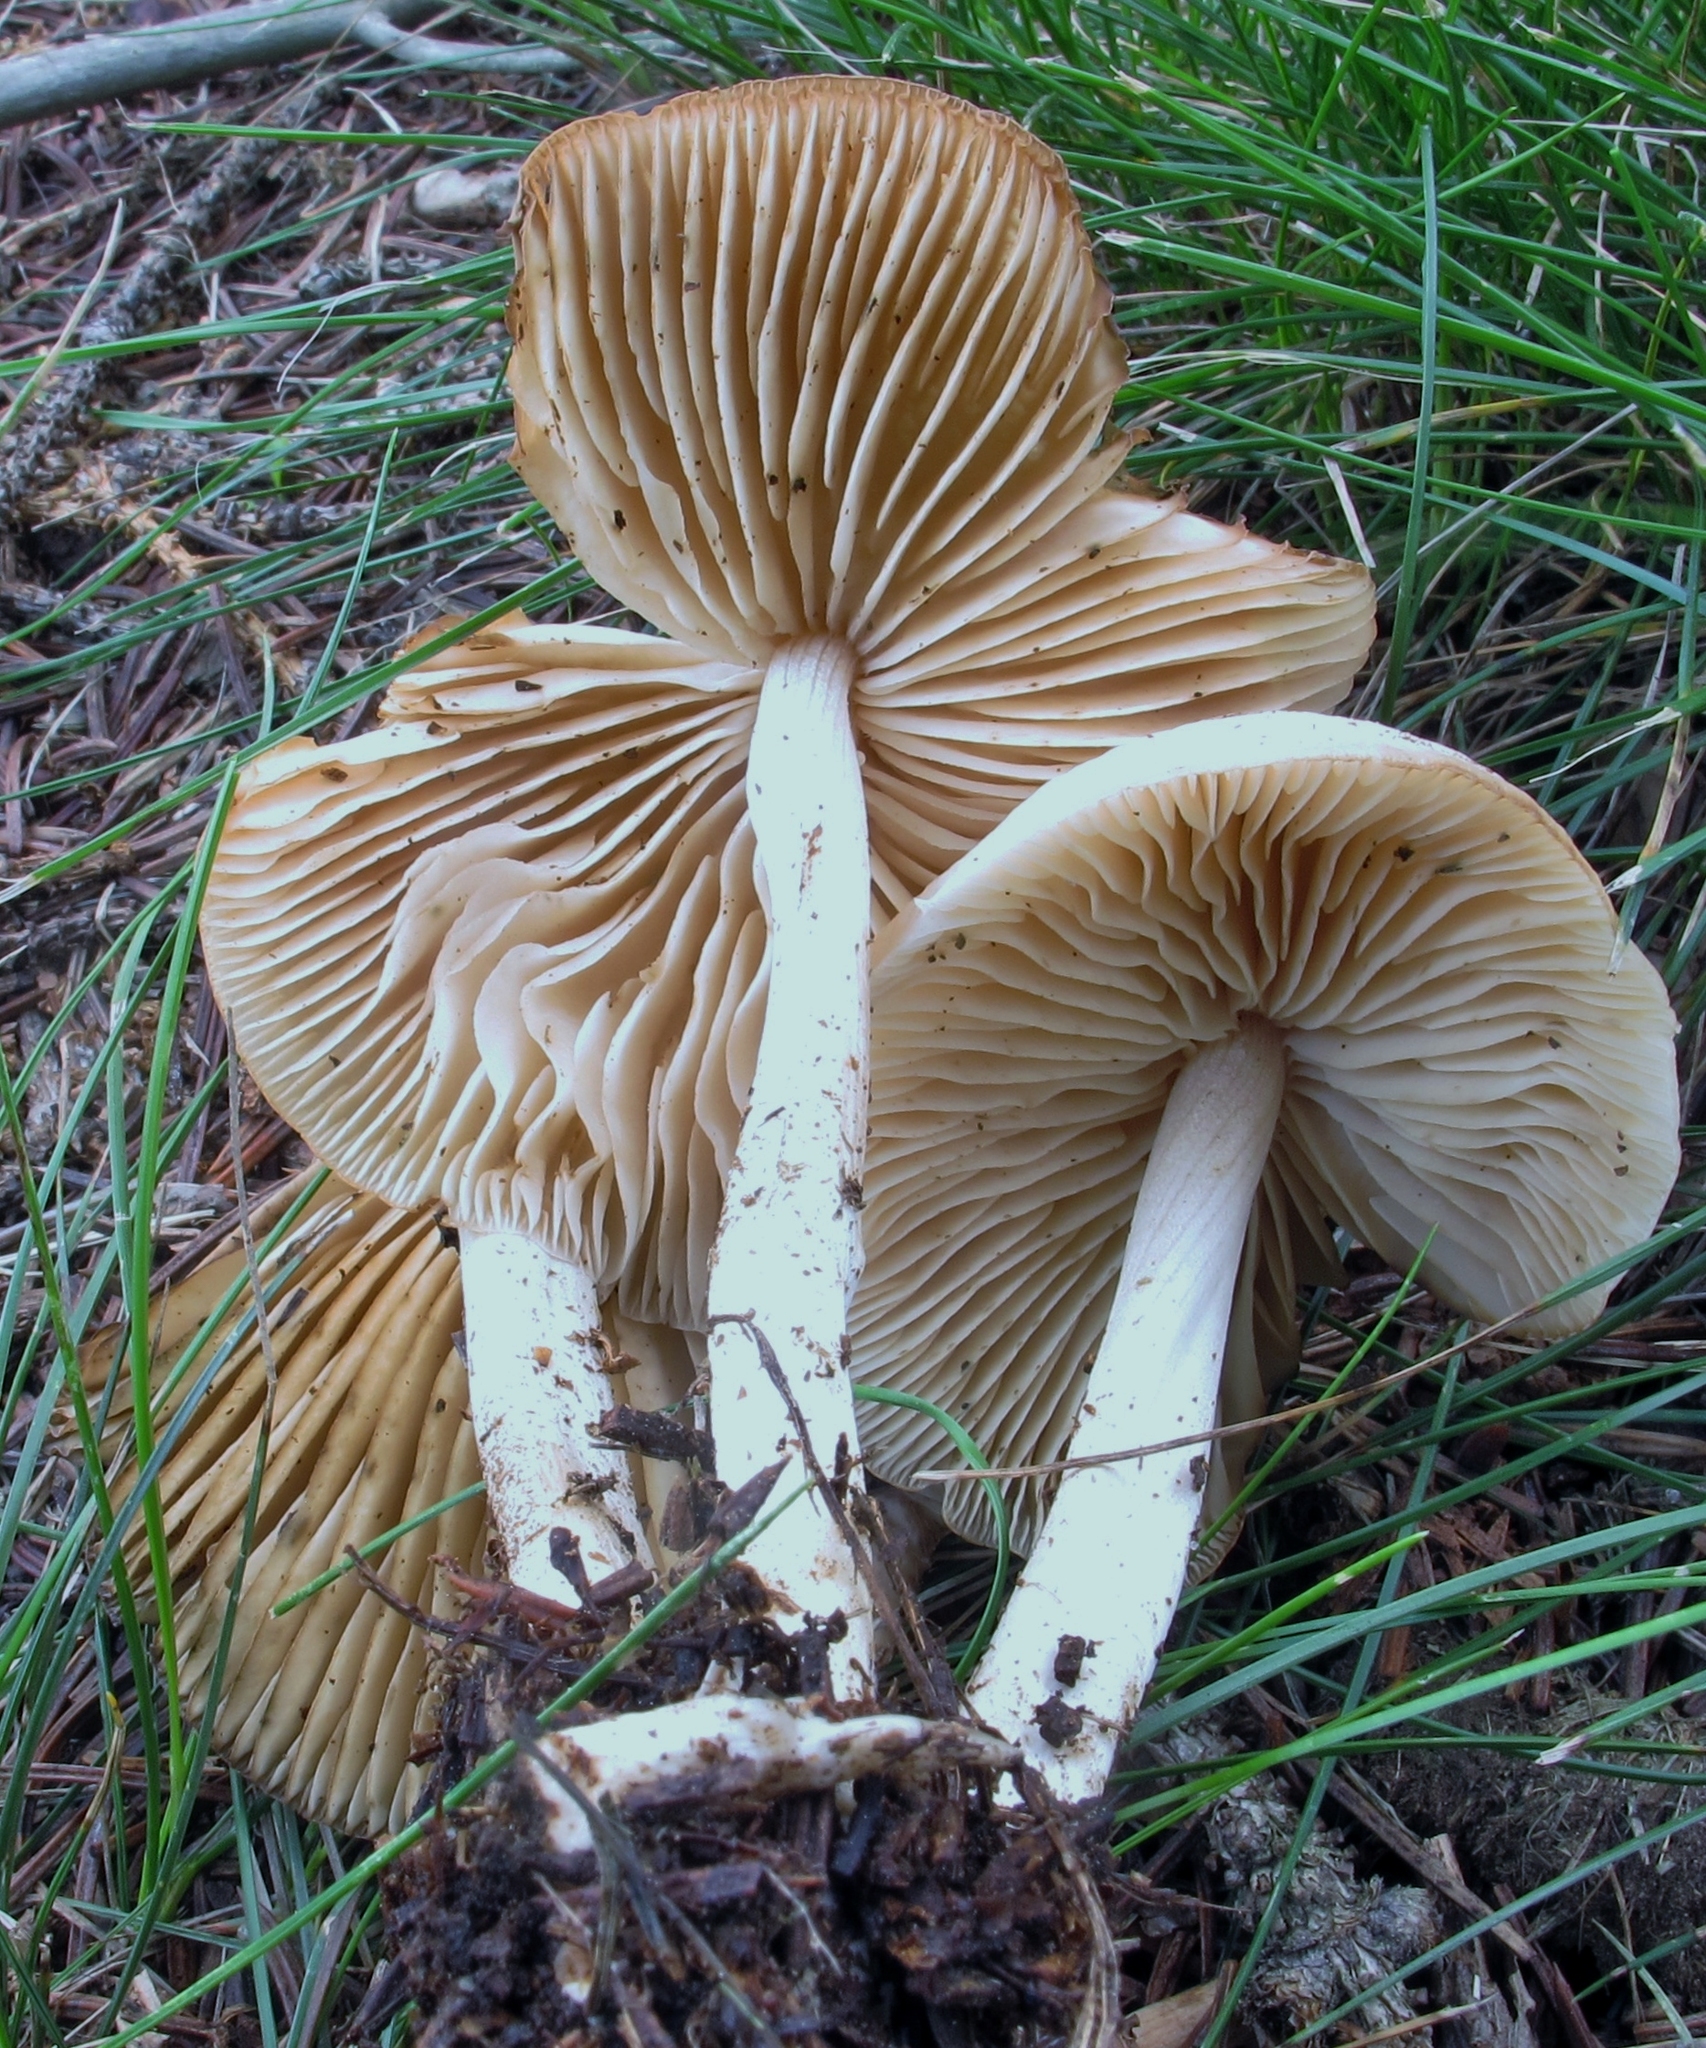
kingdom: Fungi
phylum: Basidiomycota
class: Agaricomycetes
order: Agaricales
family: Marasmiaceae
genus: Marasmius
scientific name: Marasmius nigrodiscus
